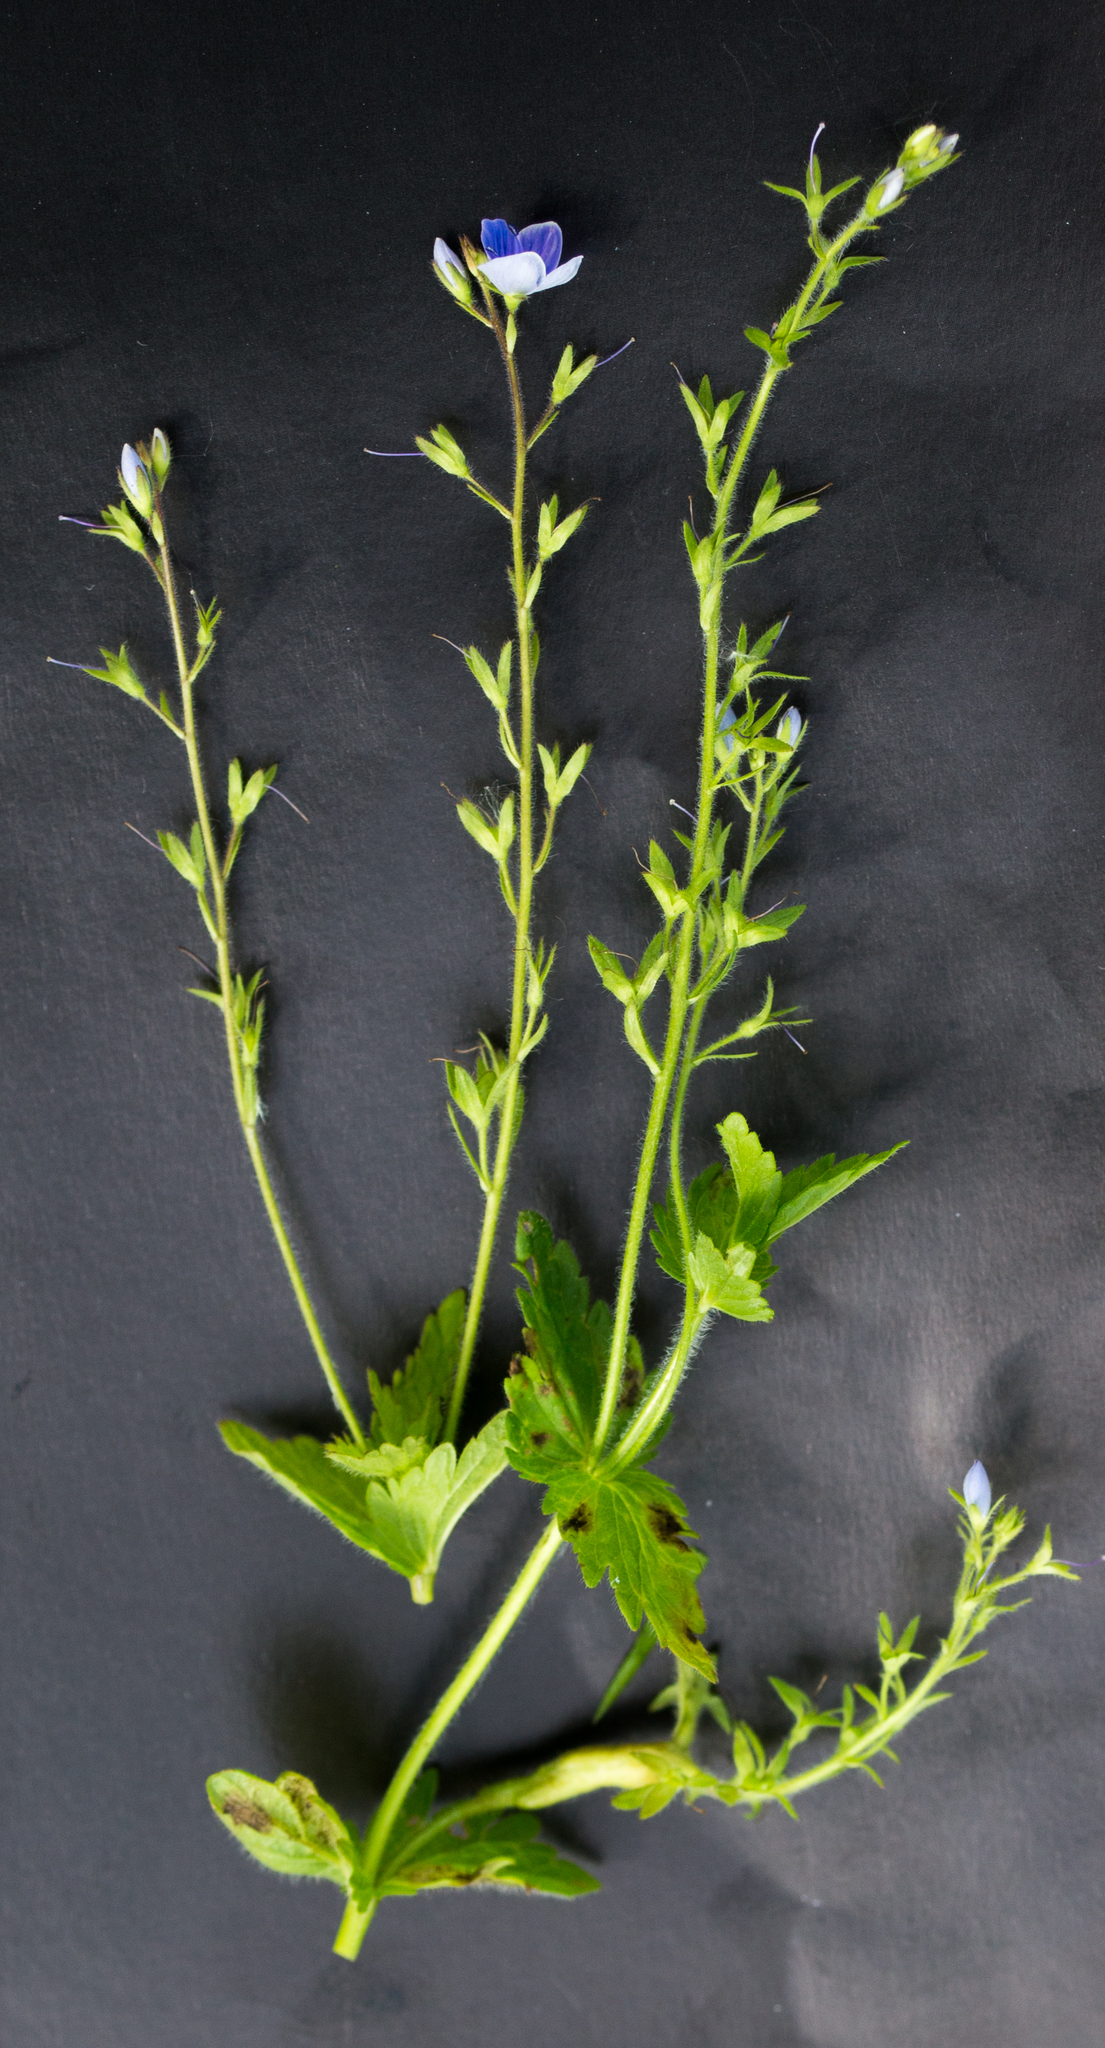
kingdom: Plantae
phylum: Tracheophyta
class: Magnoliopsida
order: Lamiales
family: Plantaginaceae
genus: Veronica
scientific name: Veronica chamaedrys
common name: Germander speedwell
